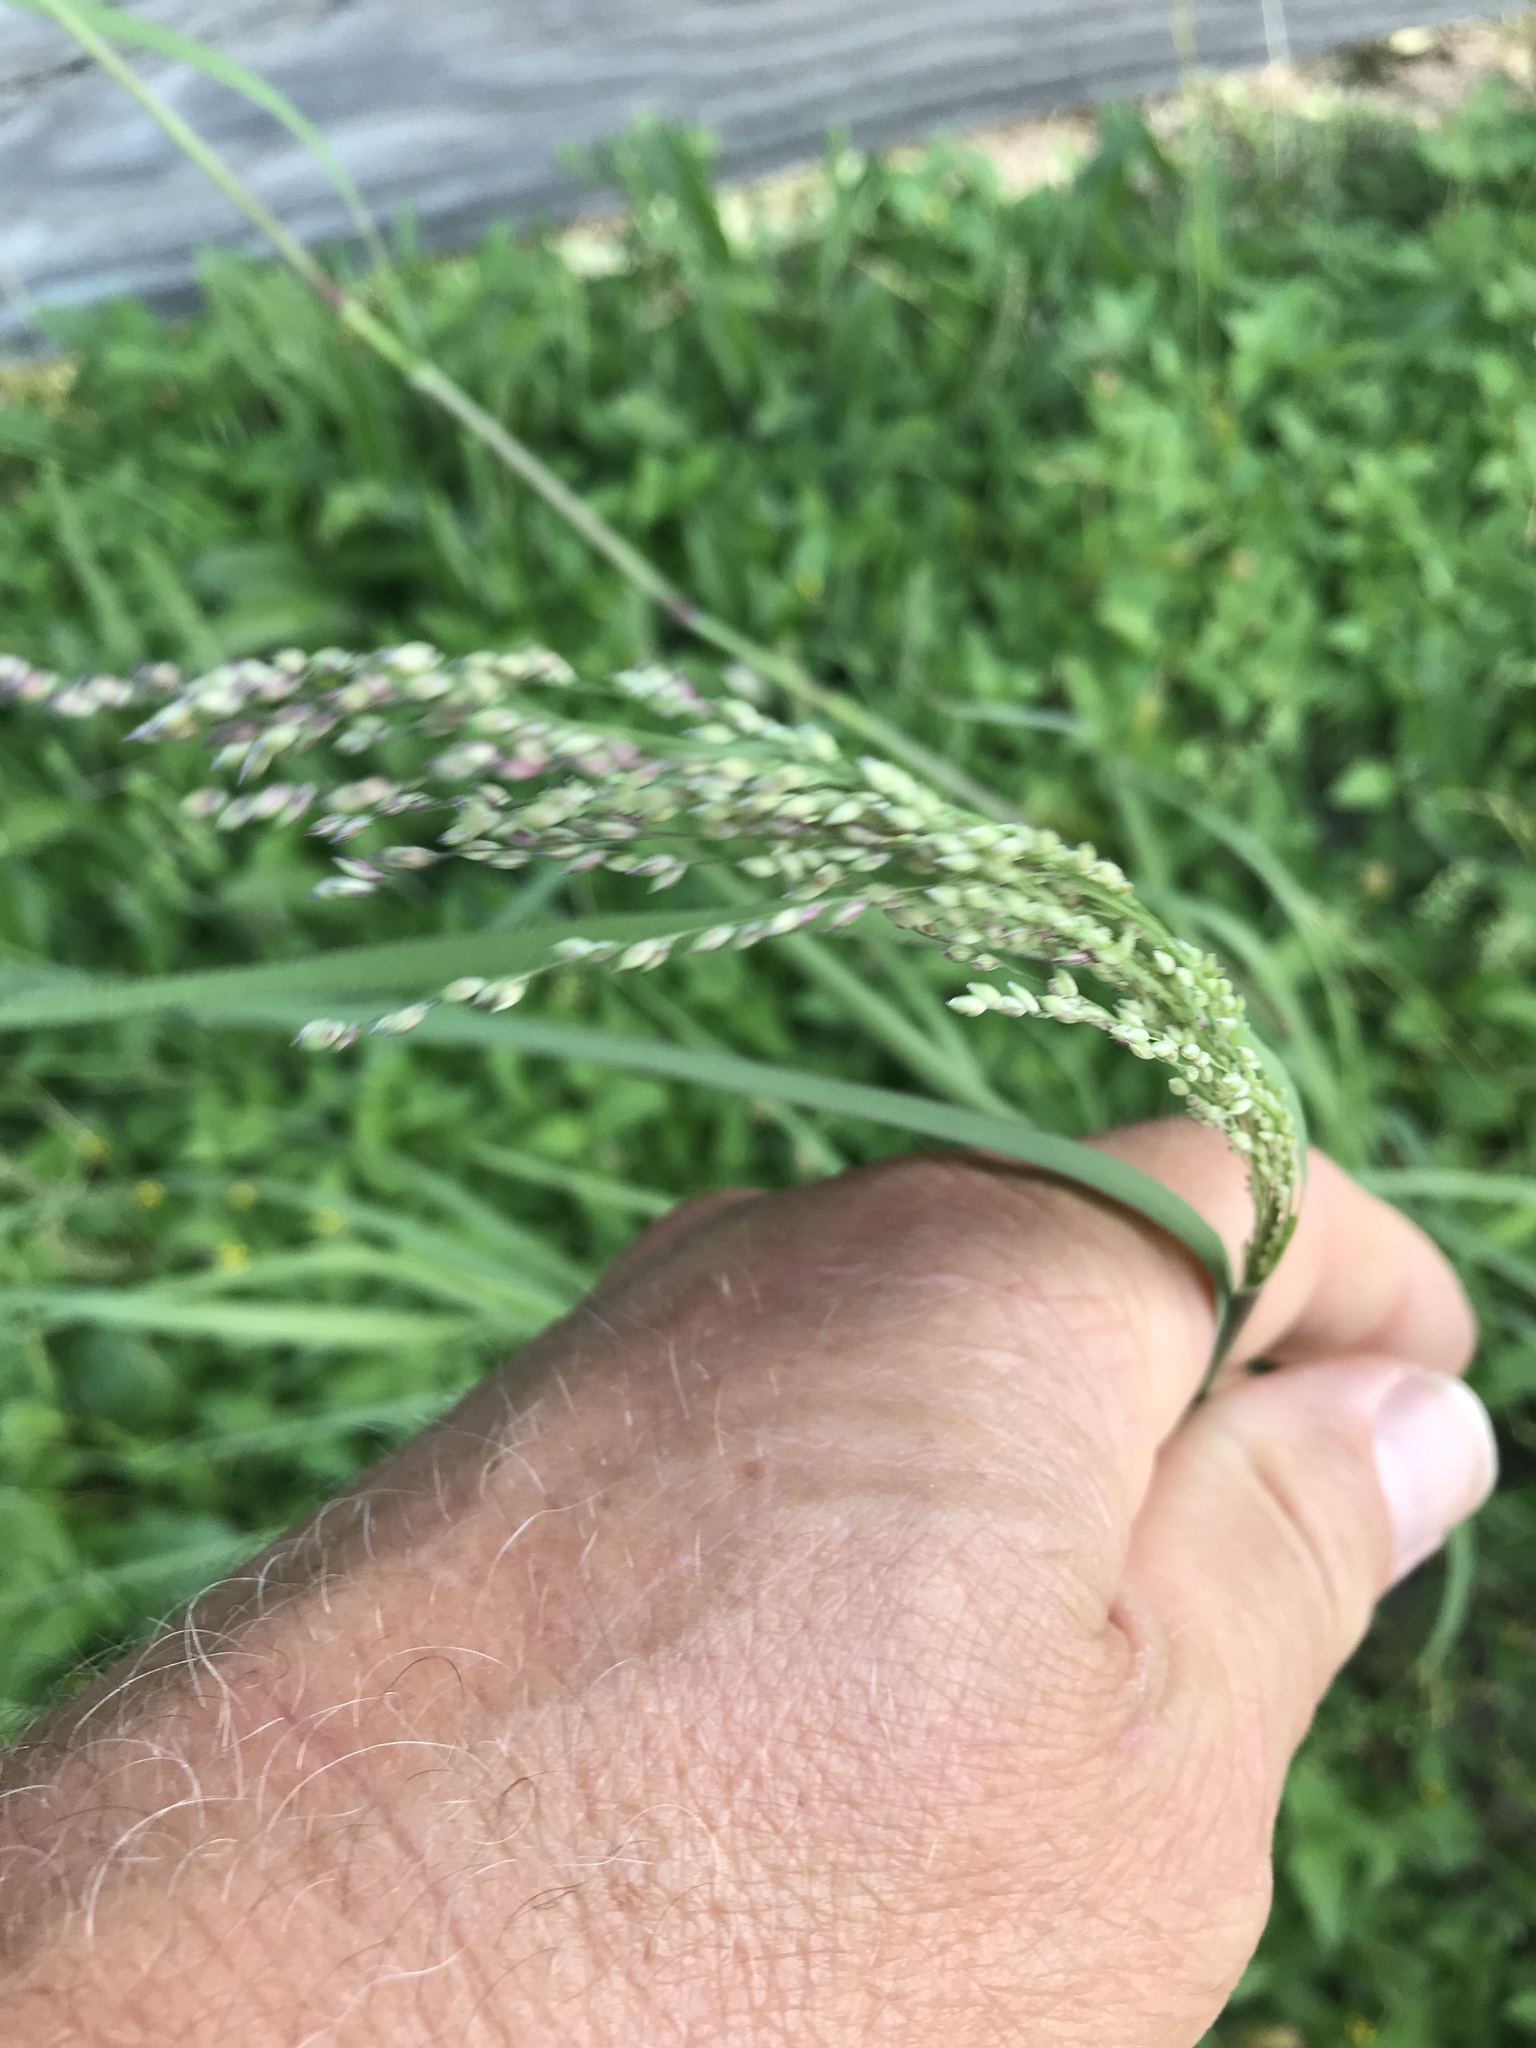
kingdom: Plantae
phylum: Tracheophyta
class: Liliopsida
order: Poales
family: Poaceae
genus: Panicum
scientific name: Panicum coloratum
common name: Kleingrass
